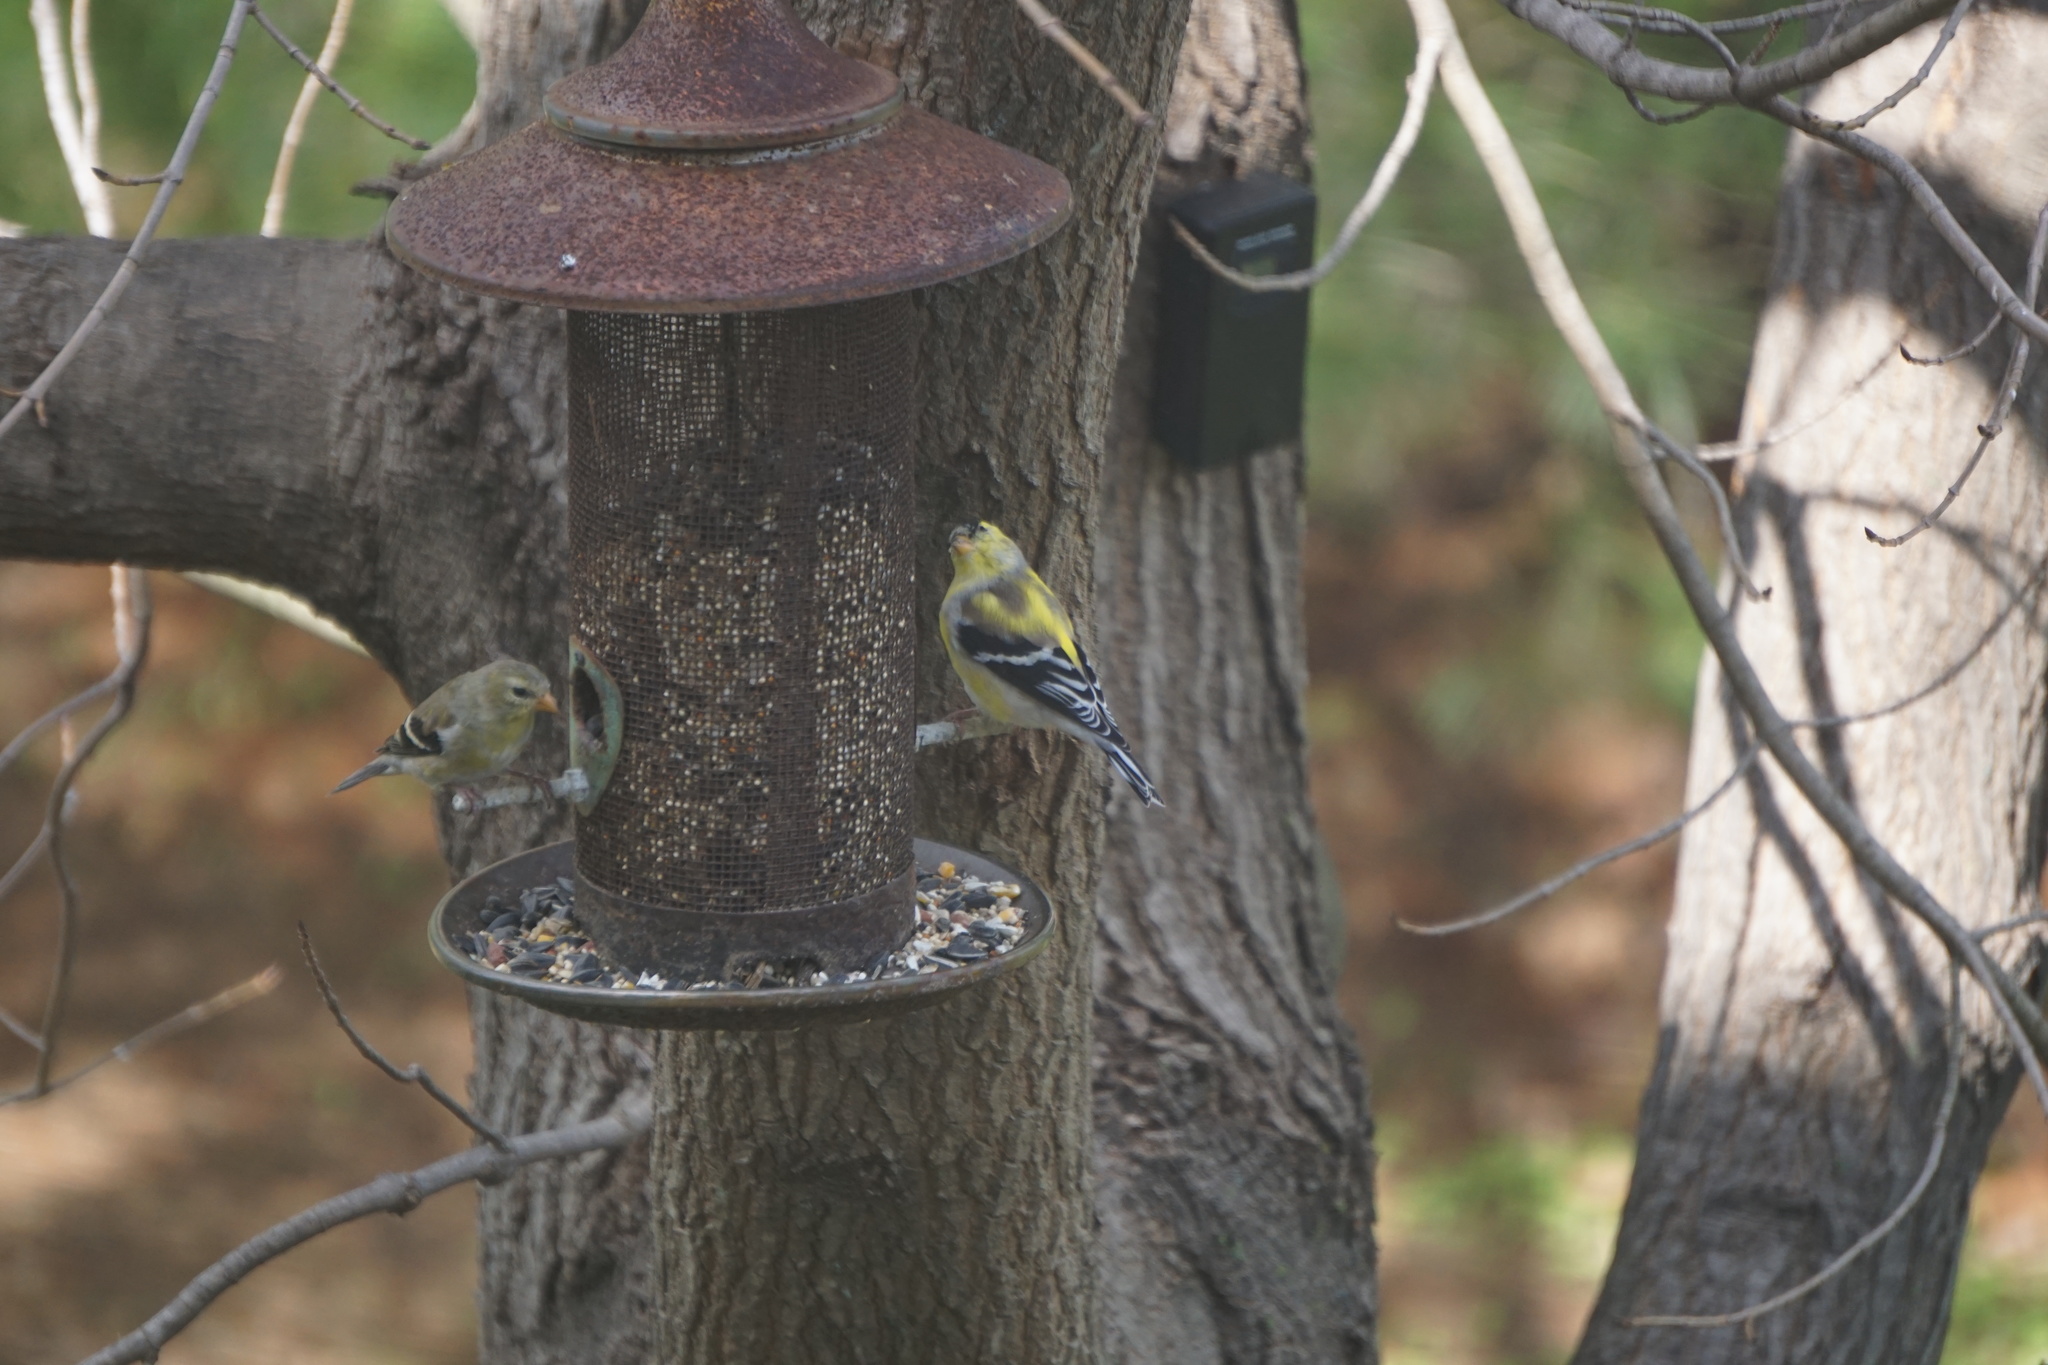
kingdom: Animalia
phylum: Chordata
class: Aves
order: Passeriformes
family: Fringillidae
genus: Spinus
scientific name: Spinus tristis
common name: American goldfinch
